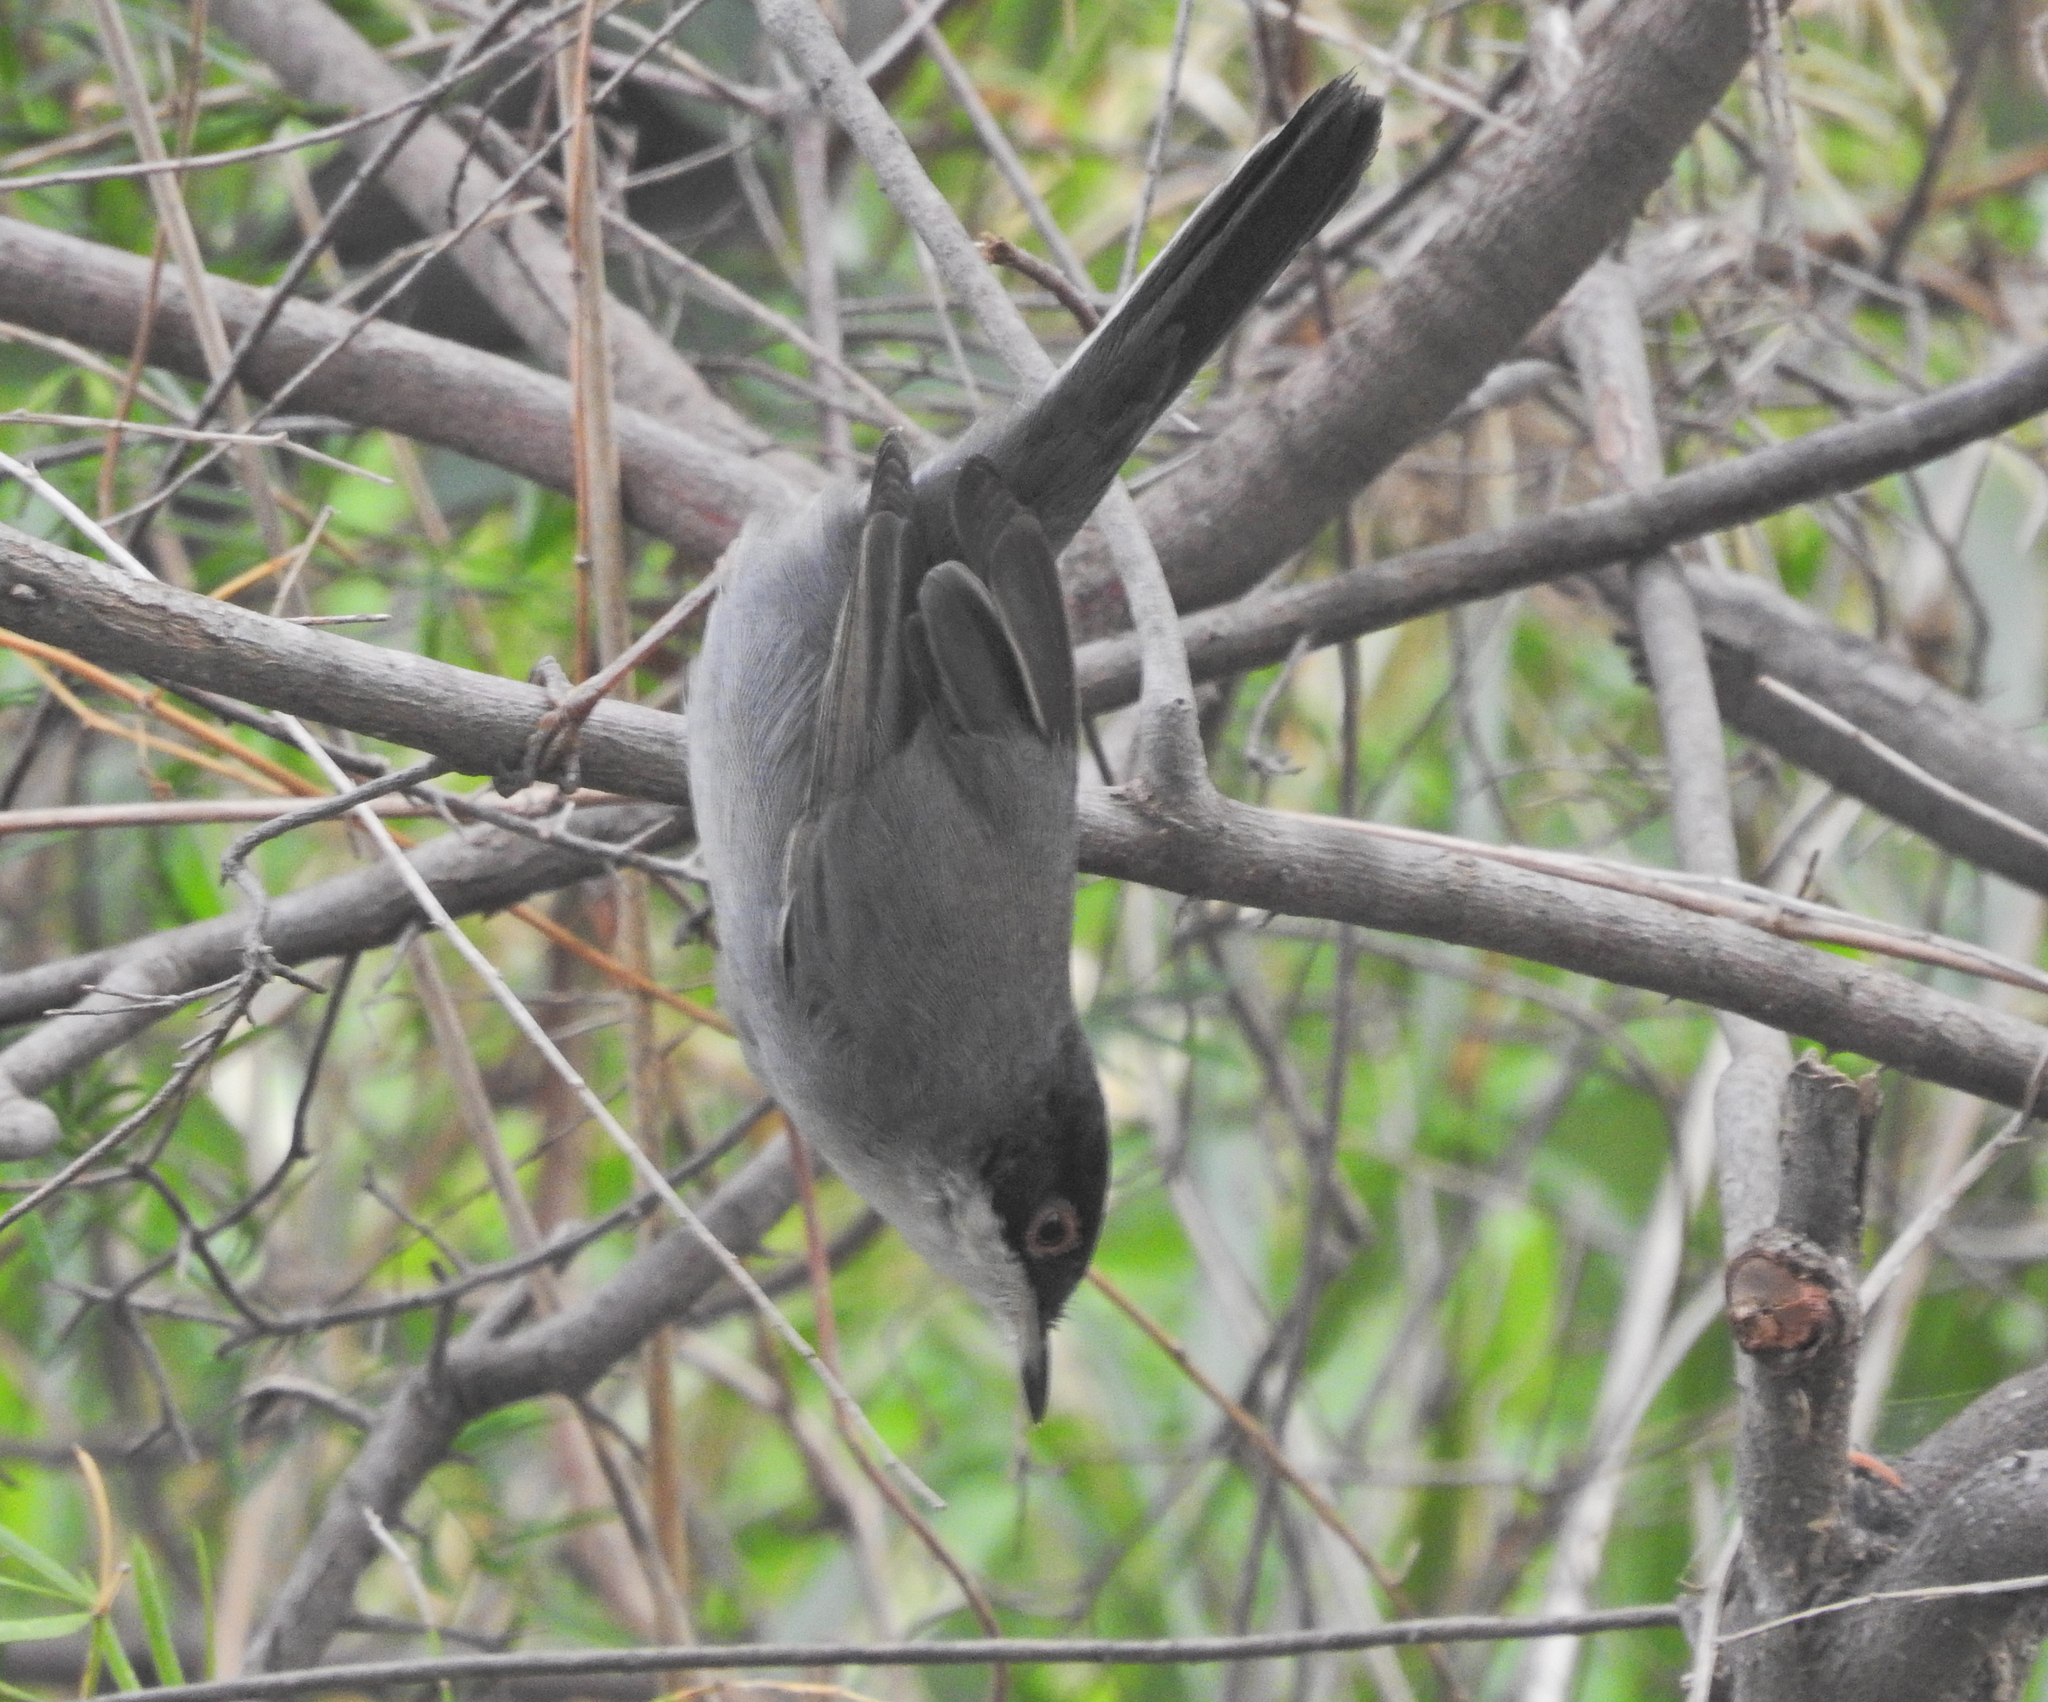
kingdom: Animalia
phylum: Chordata
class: Aves
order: Passeriformes
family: Sylviidae
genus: Curruca
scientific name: Curruca melanocephala
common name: Sardinian warbler
